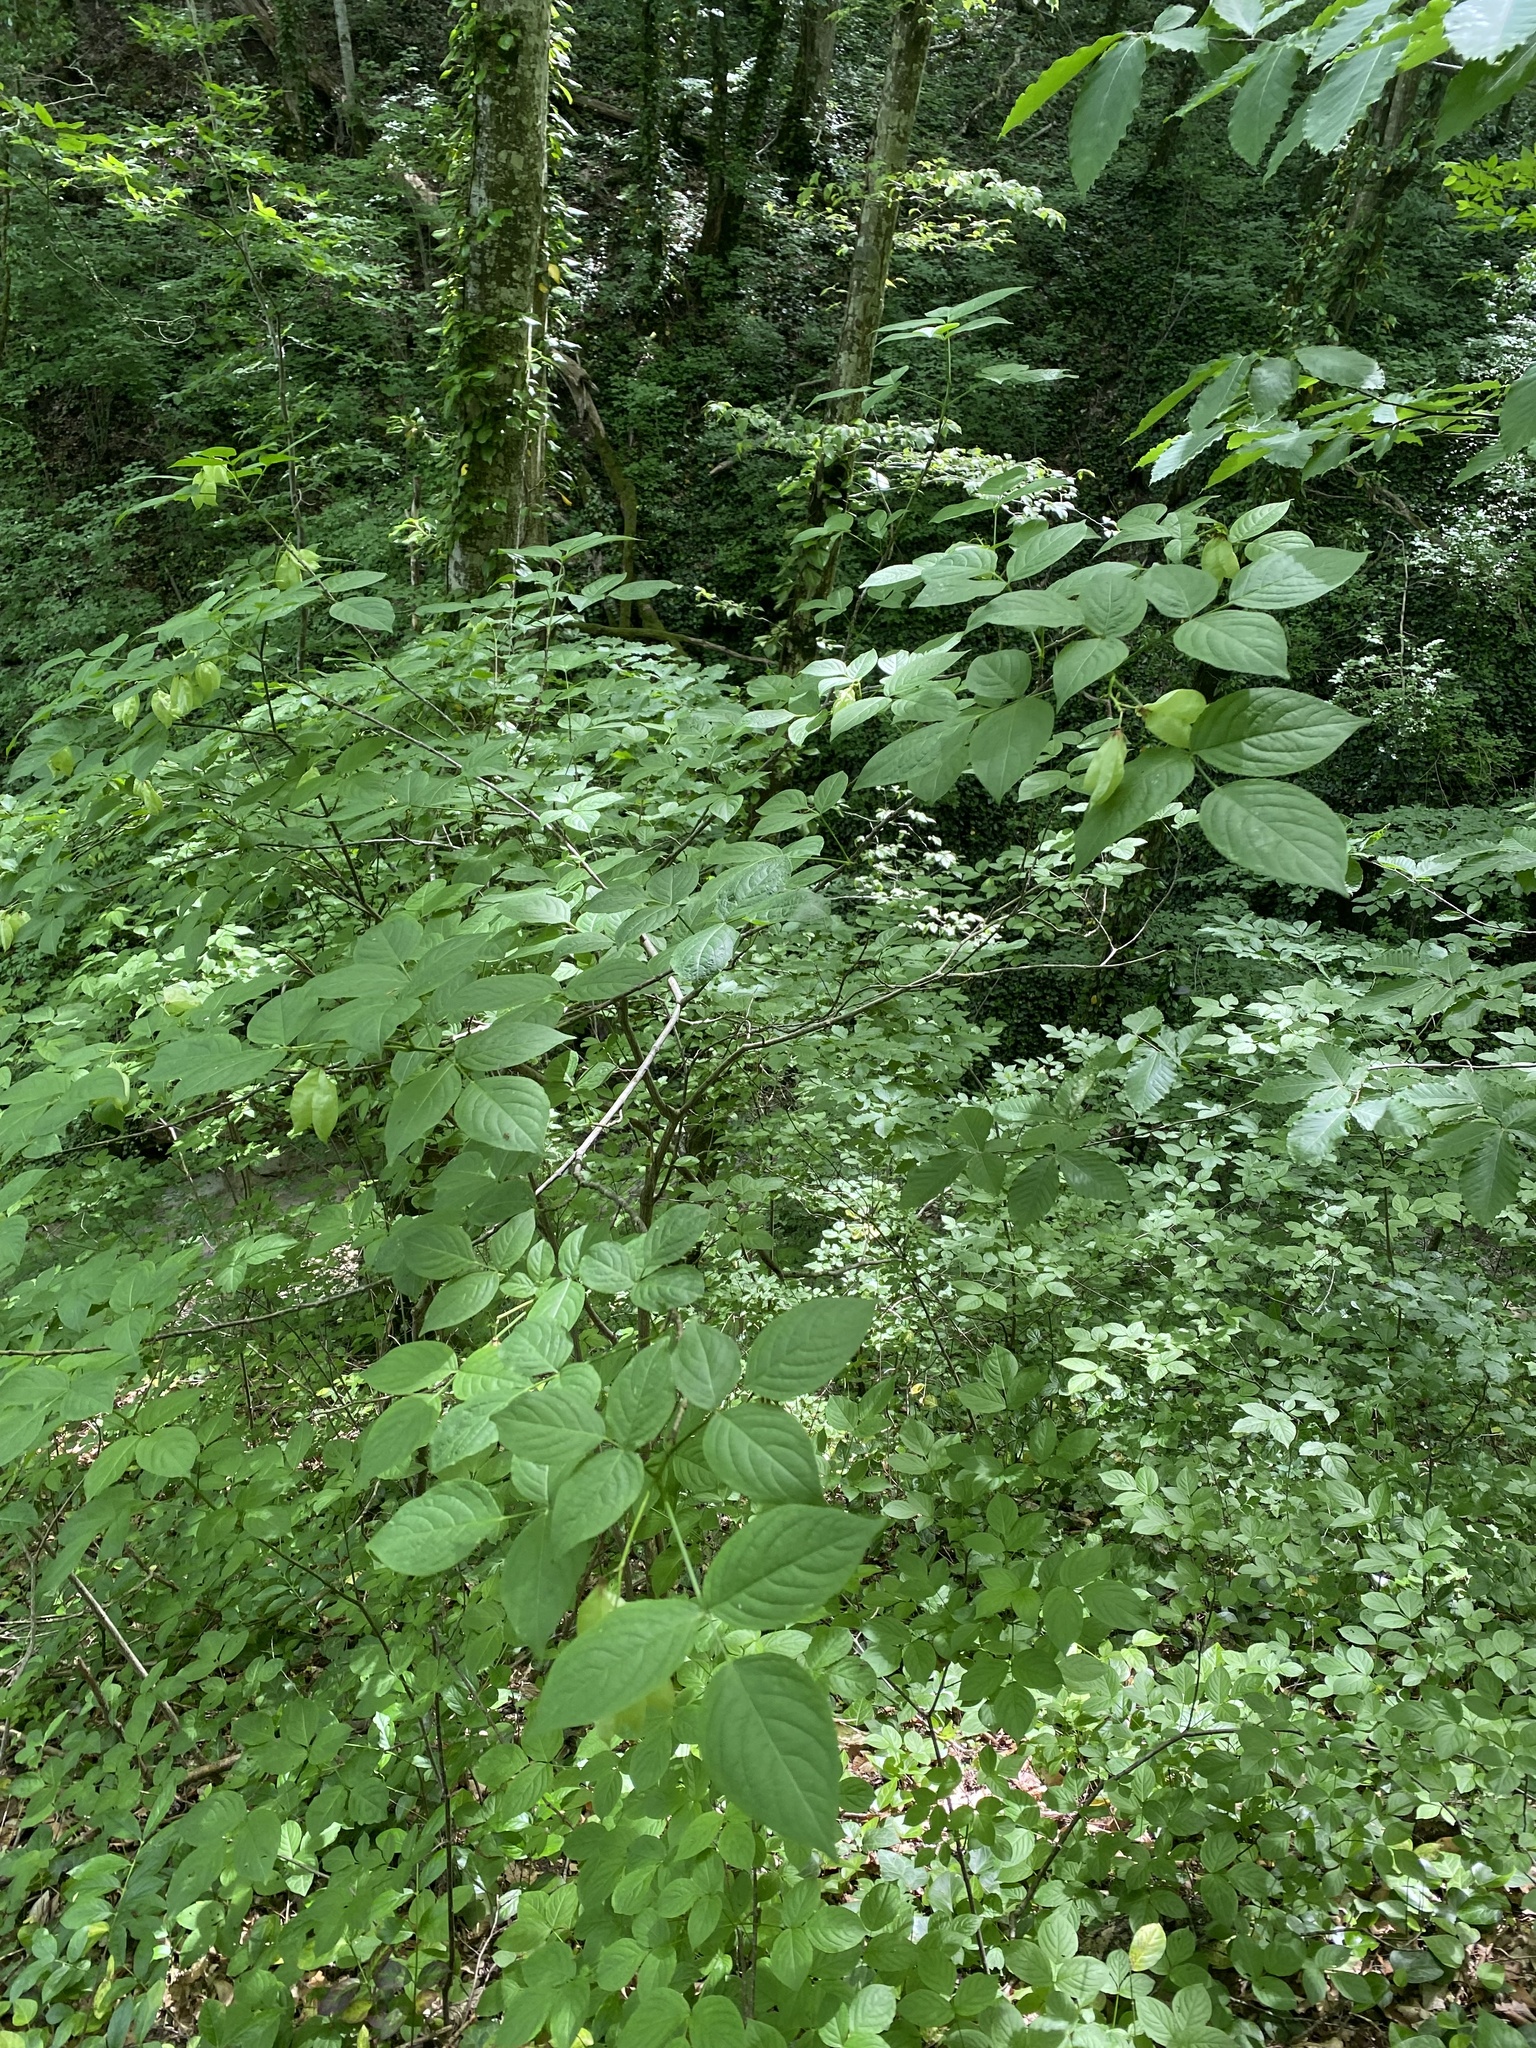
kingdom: Plantae
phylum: Tracheophyta
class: Magnoliopsida
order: Crossosomatales
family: Staphyleaceae
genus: Staphylea
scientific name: Staphylea colchica
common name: Caucasian bladdernut
